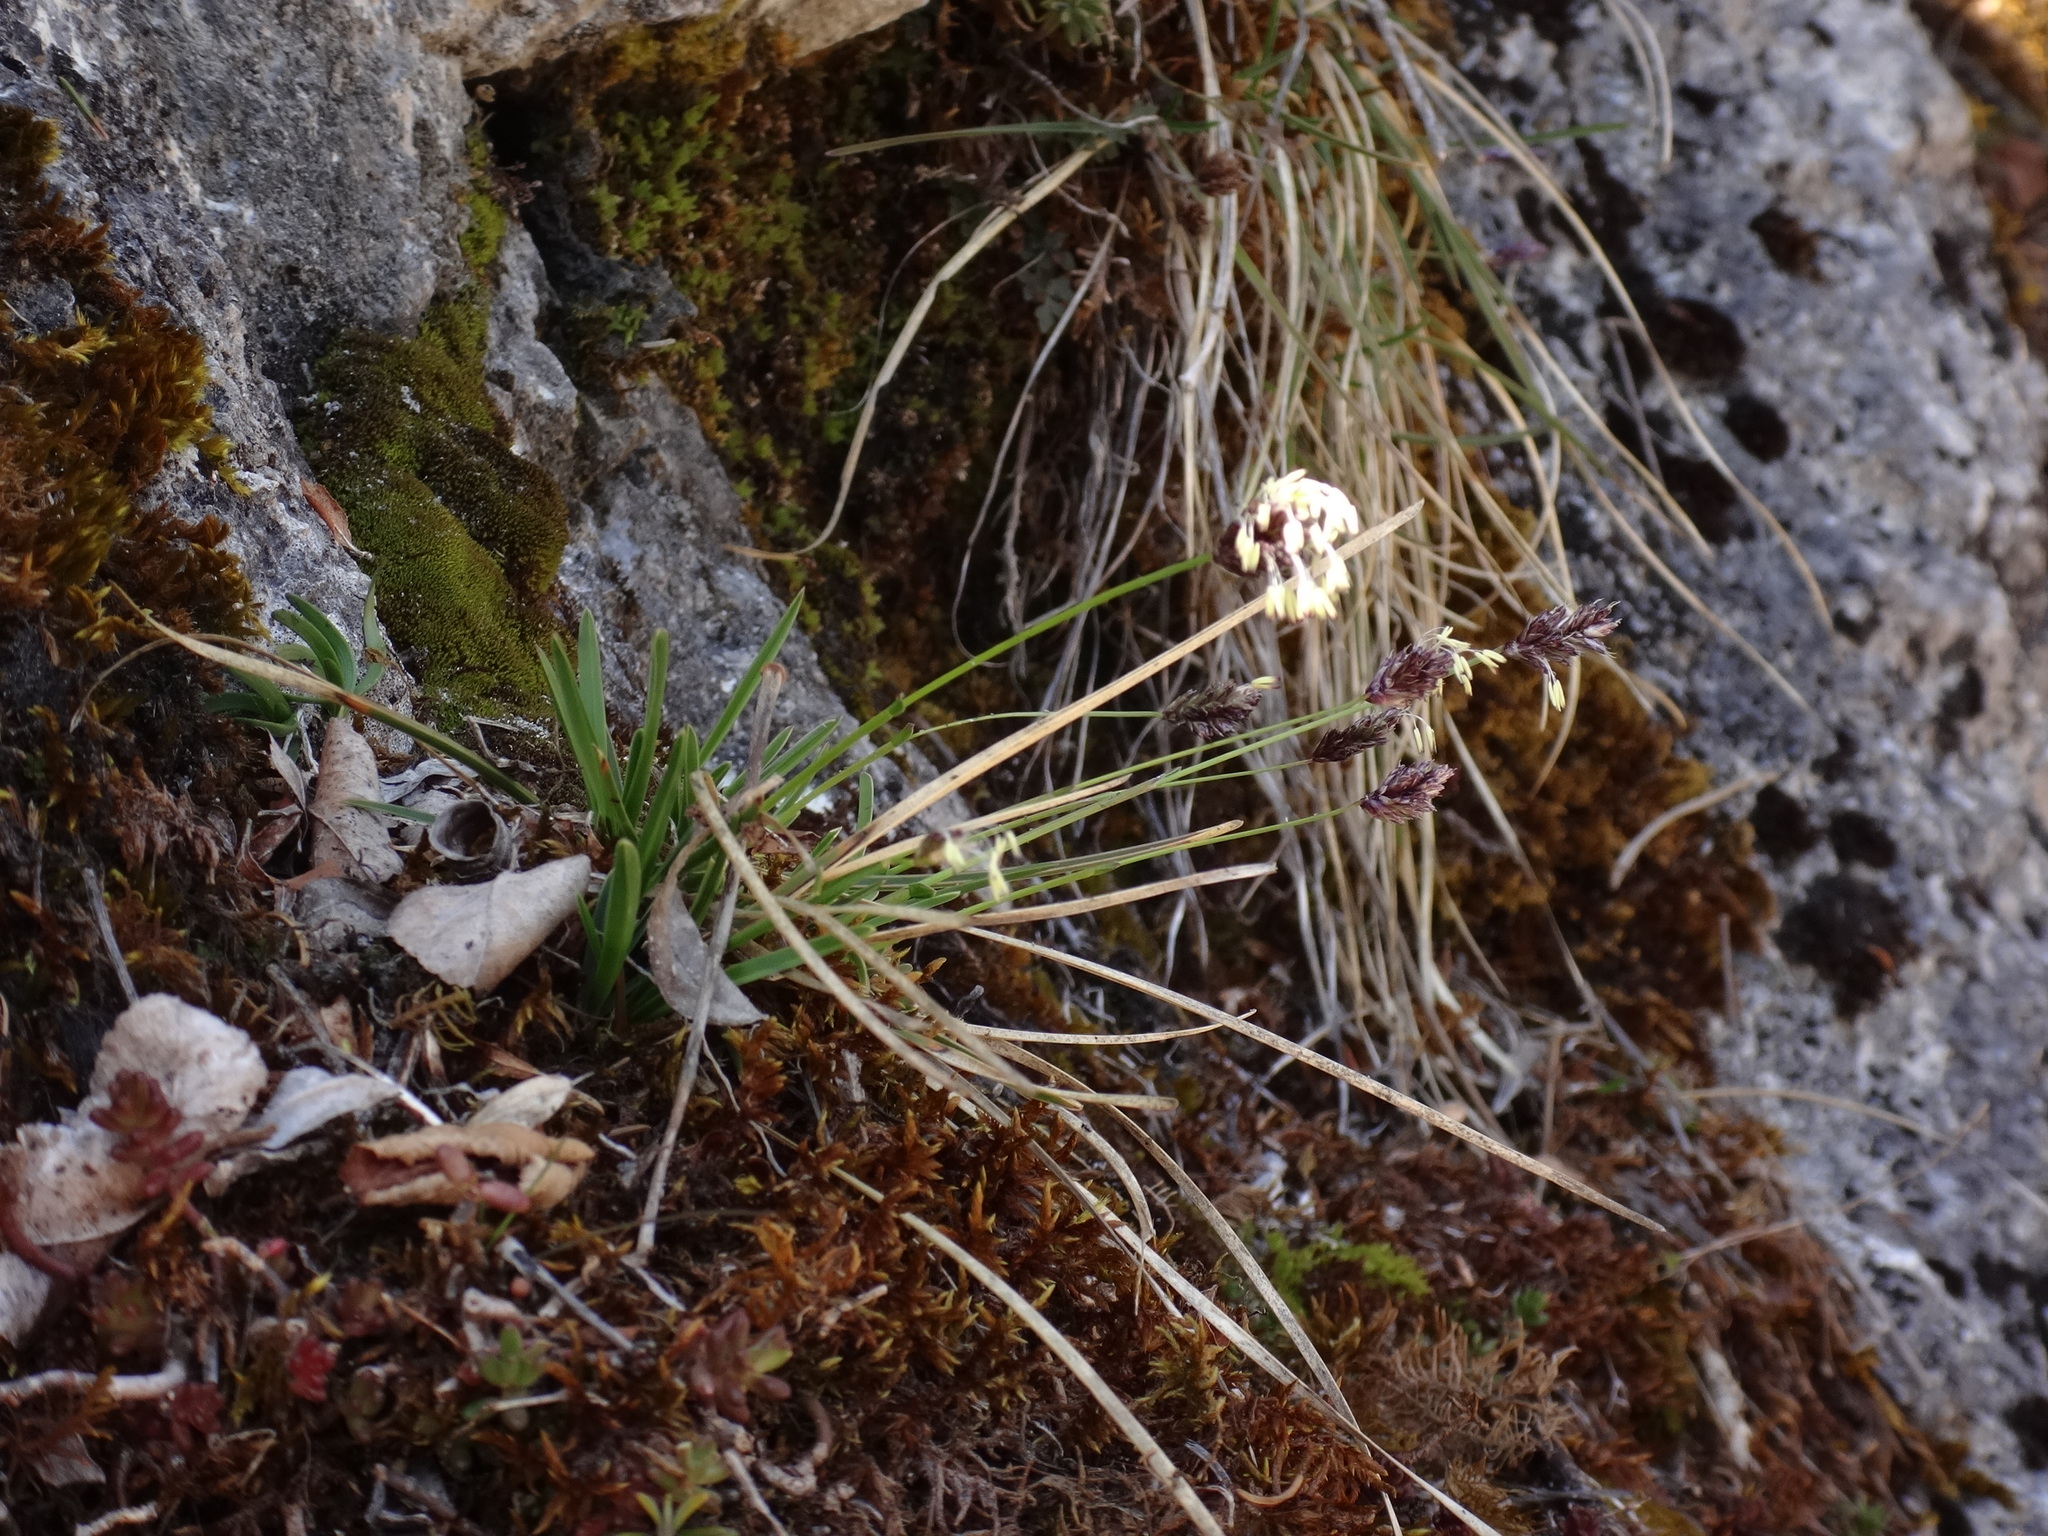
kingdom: Plantae
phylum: Tracheophyta
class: Liliopsida
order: Poales
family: Poaceae
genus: Sesleria
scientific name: Sesleria caerulea
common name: Blue moor-grass
